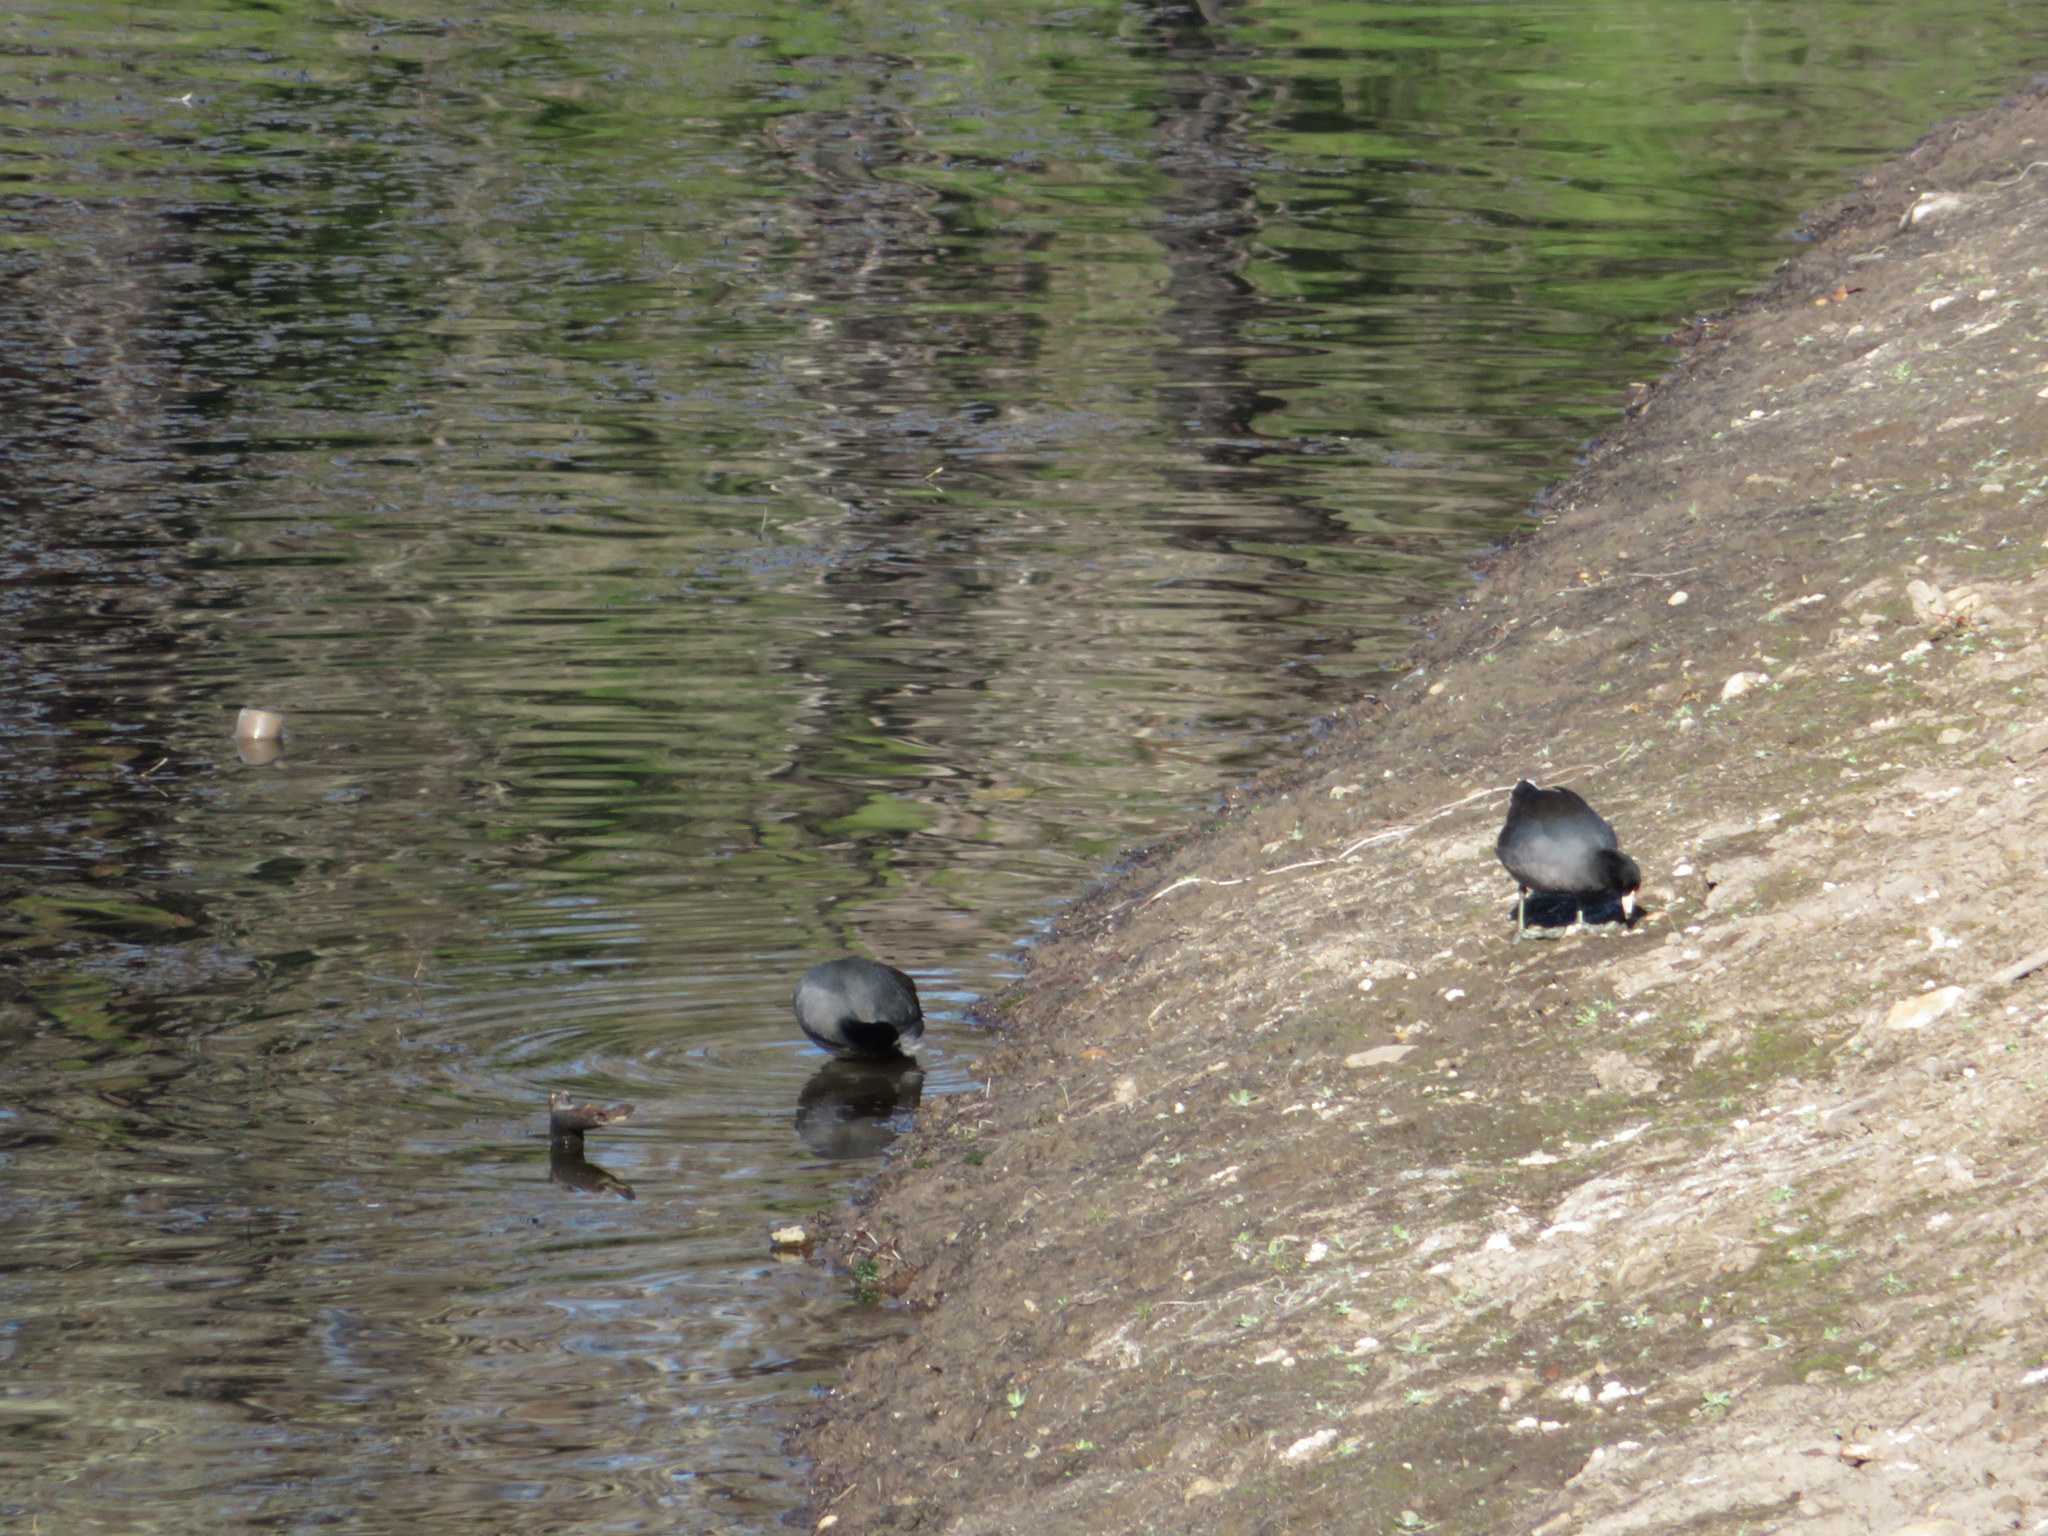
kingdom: Animalia
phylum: Chordata
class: Aves
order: Gruiformes
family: Rallidae
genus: Fulica
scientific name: Fulica americana
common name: American coot
